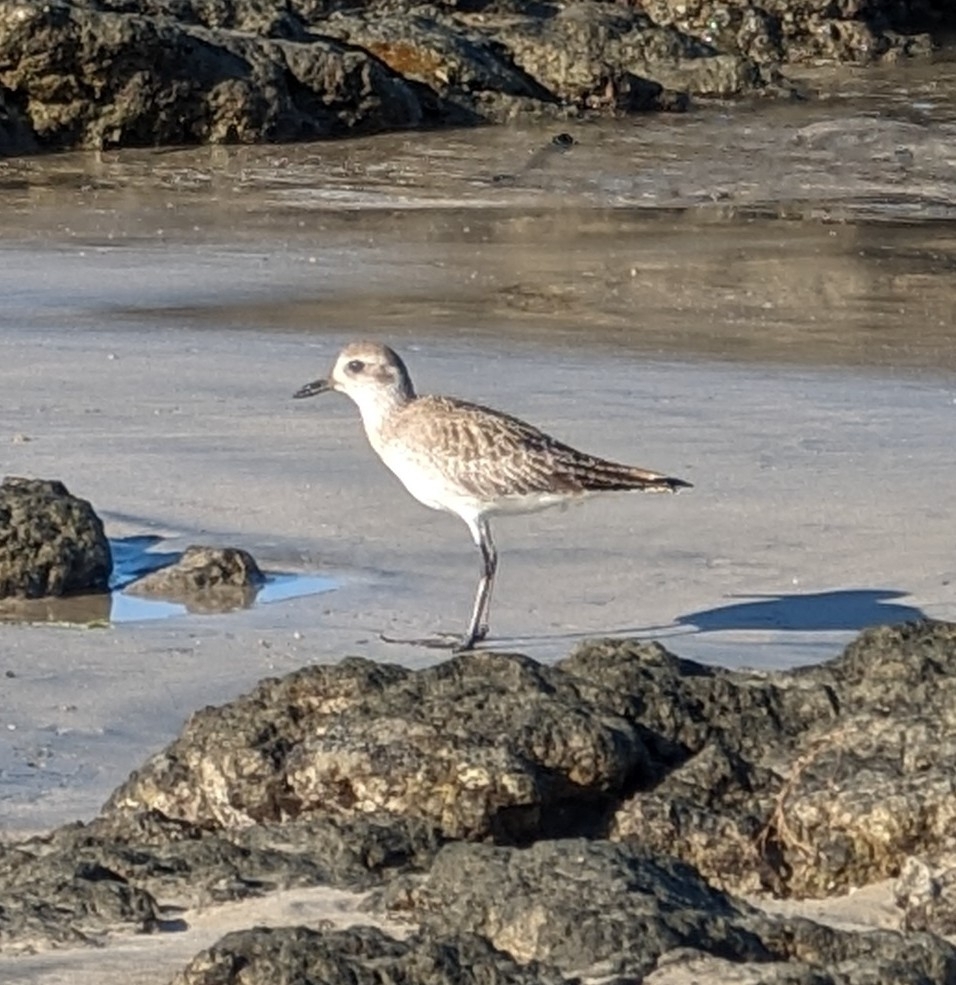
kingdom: Animalia
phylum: Chordata
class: Aves
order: Charadriiformes
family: Charadriidae
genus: Pluvialis
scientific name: Pluvialis squatarola
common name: Grey plover
